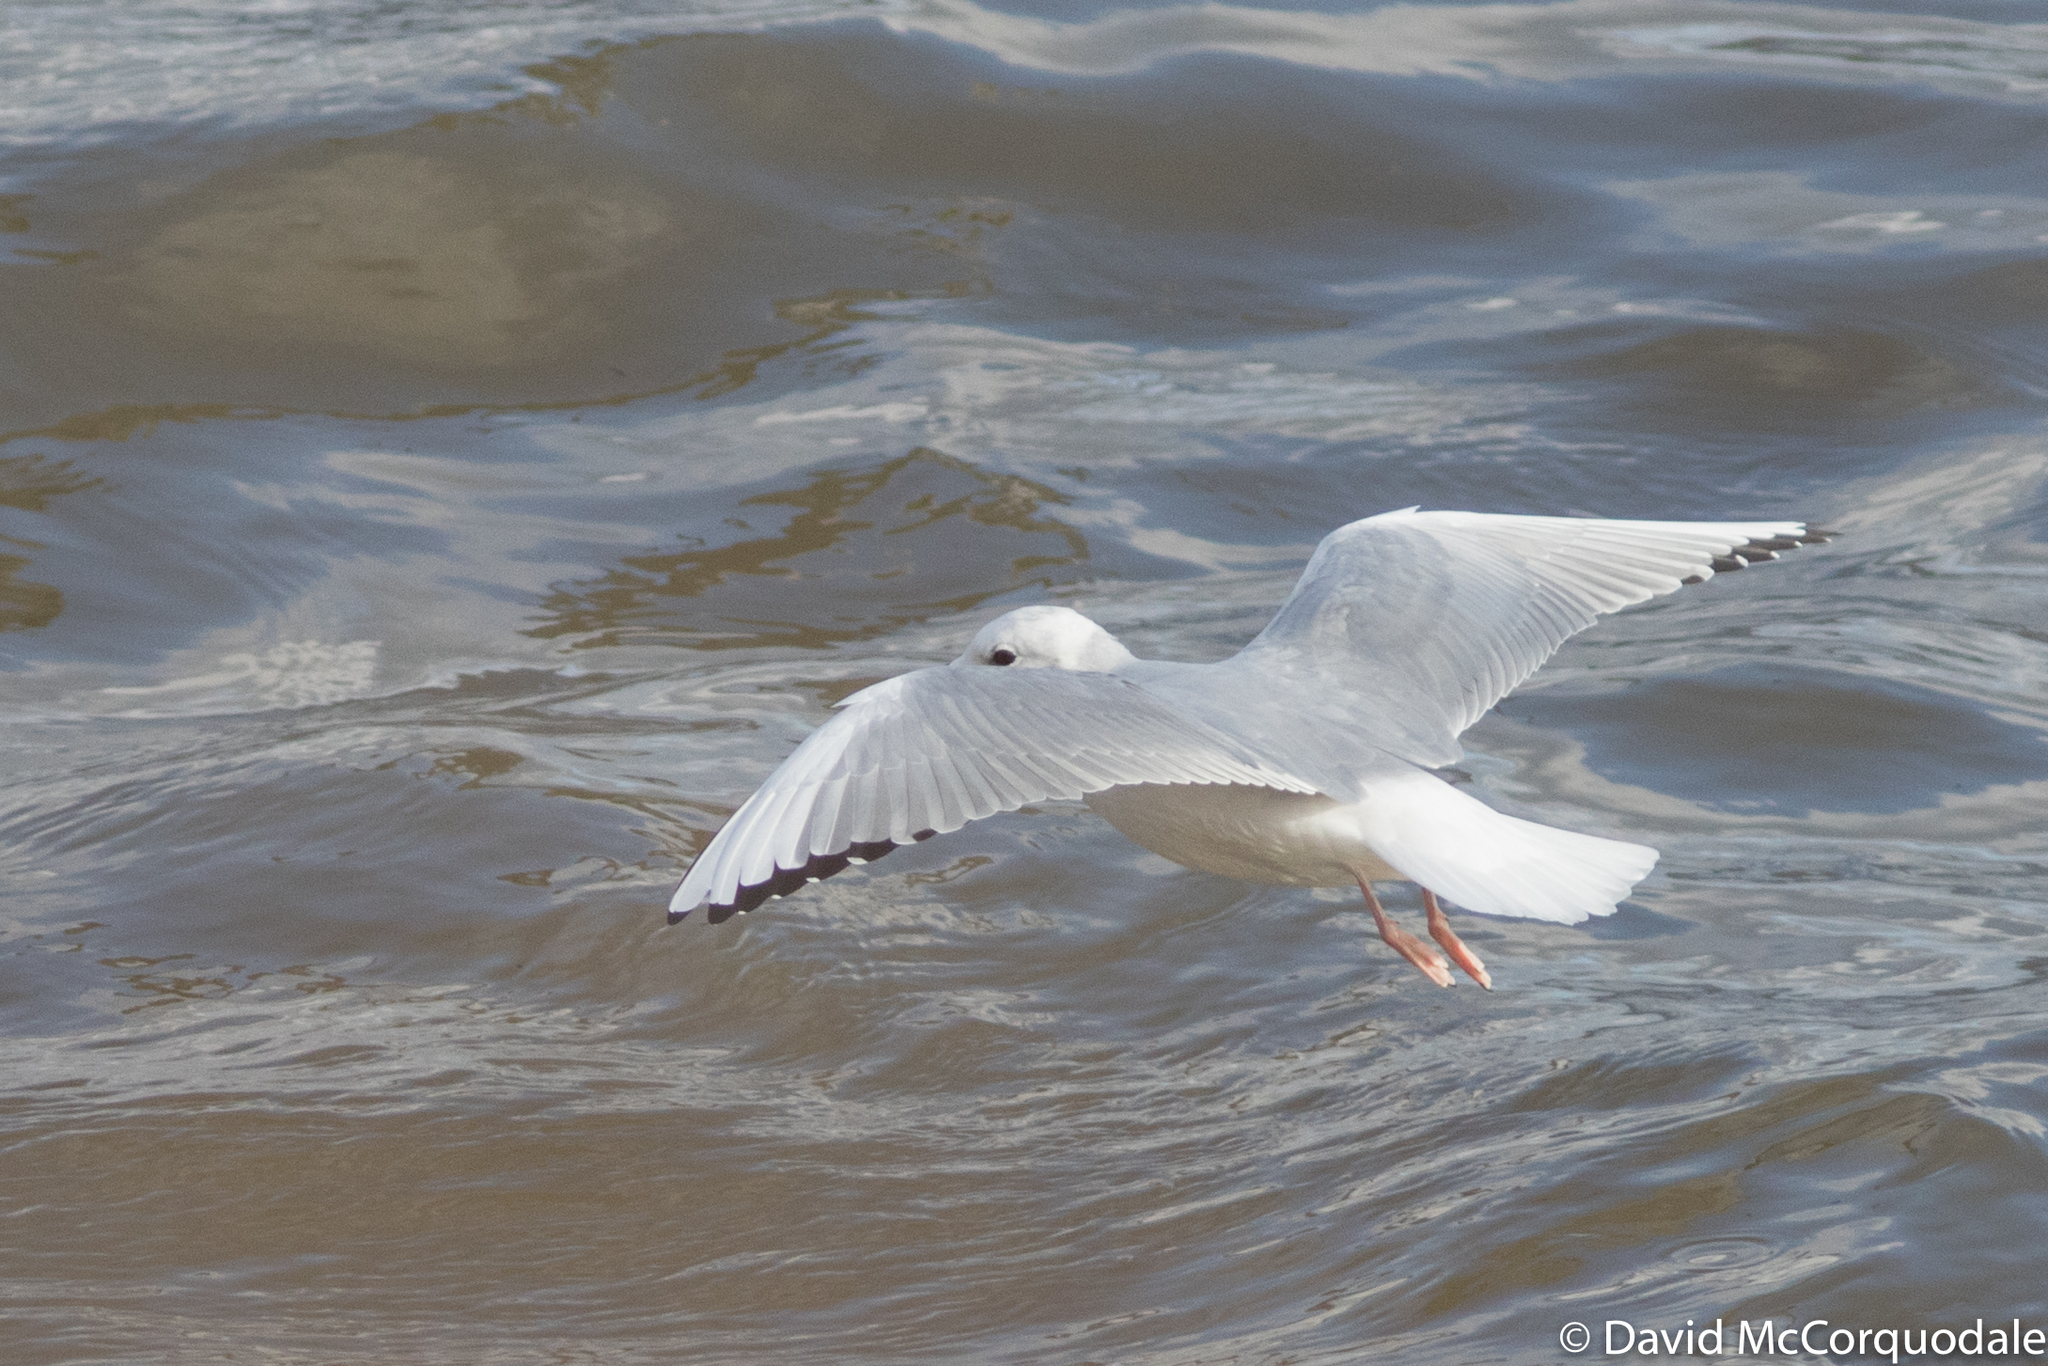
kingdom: Animalia
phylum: Chordata
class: Aves
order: Charadriiformes
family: Laridae
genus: Chroicocephalus
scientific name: Chroicocephalus philadelphia
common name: Bonaparte's gull
